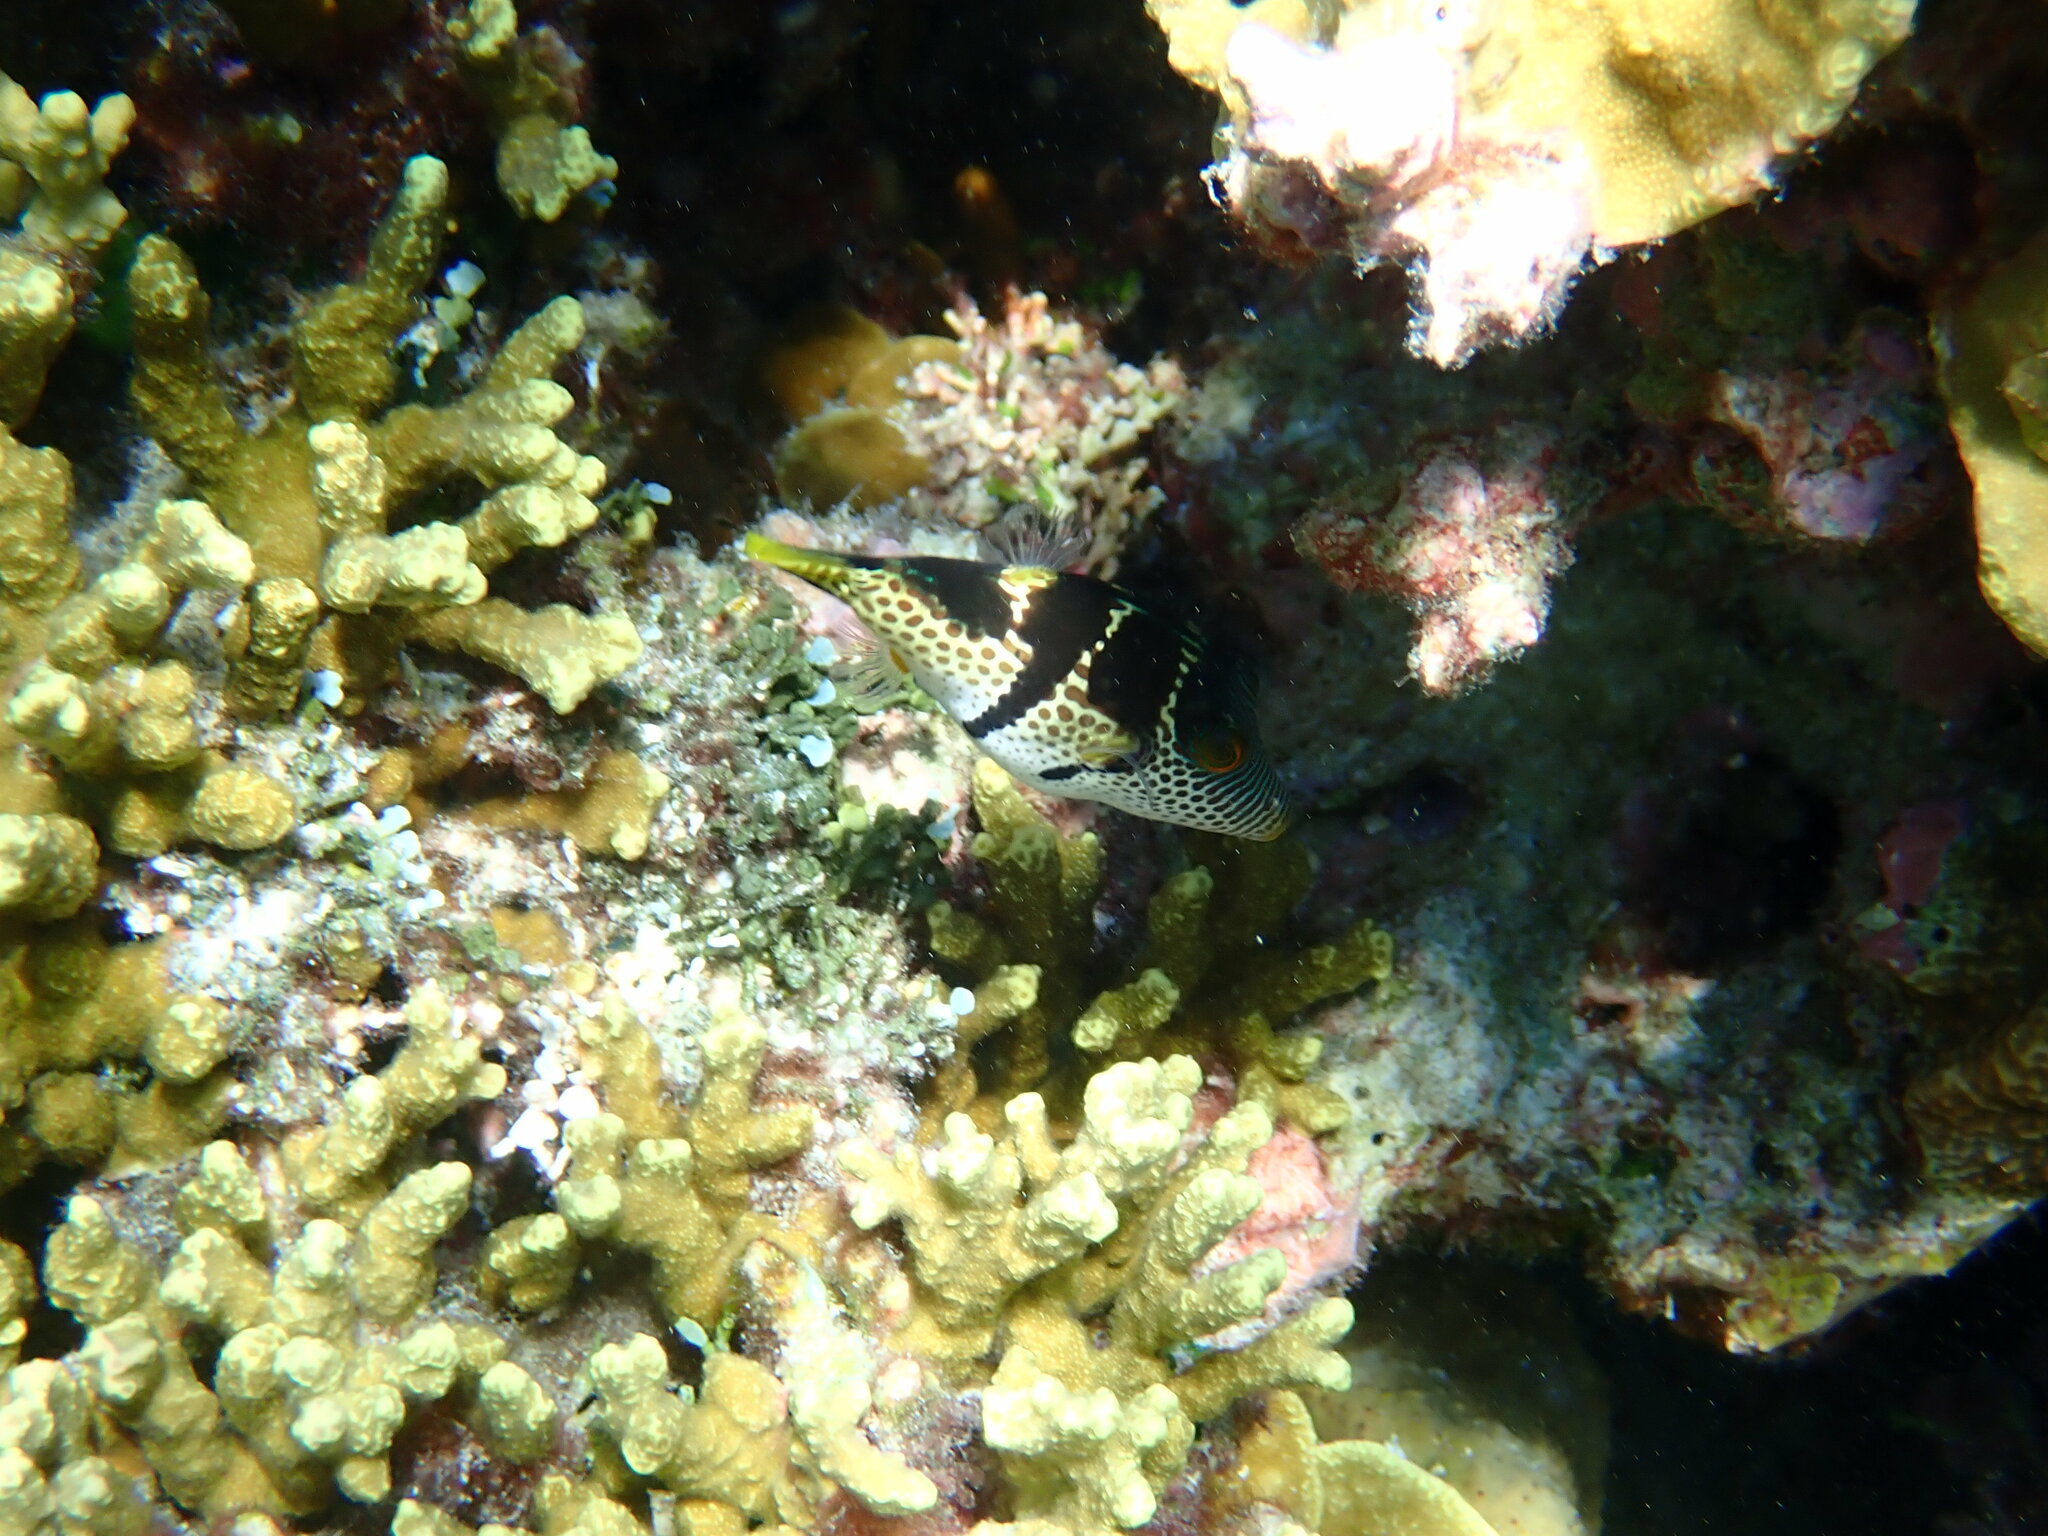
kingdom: Animalia
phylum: Chordata
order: Tetraodontiformes
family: Tetraodontidae
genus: Canthigaster
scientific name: Canthigaster valentini
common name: Banded toby
